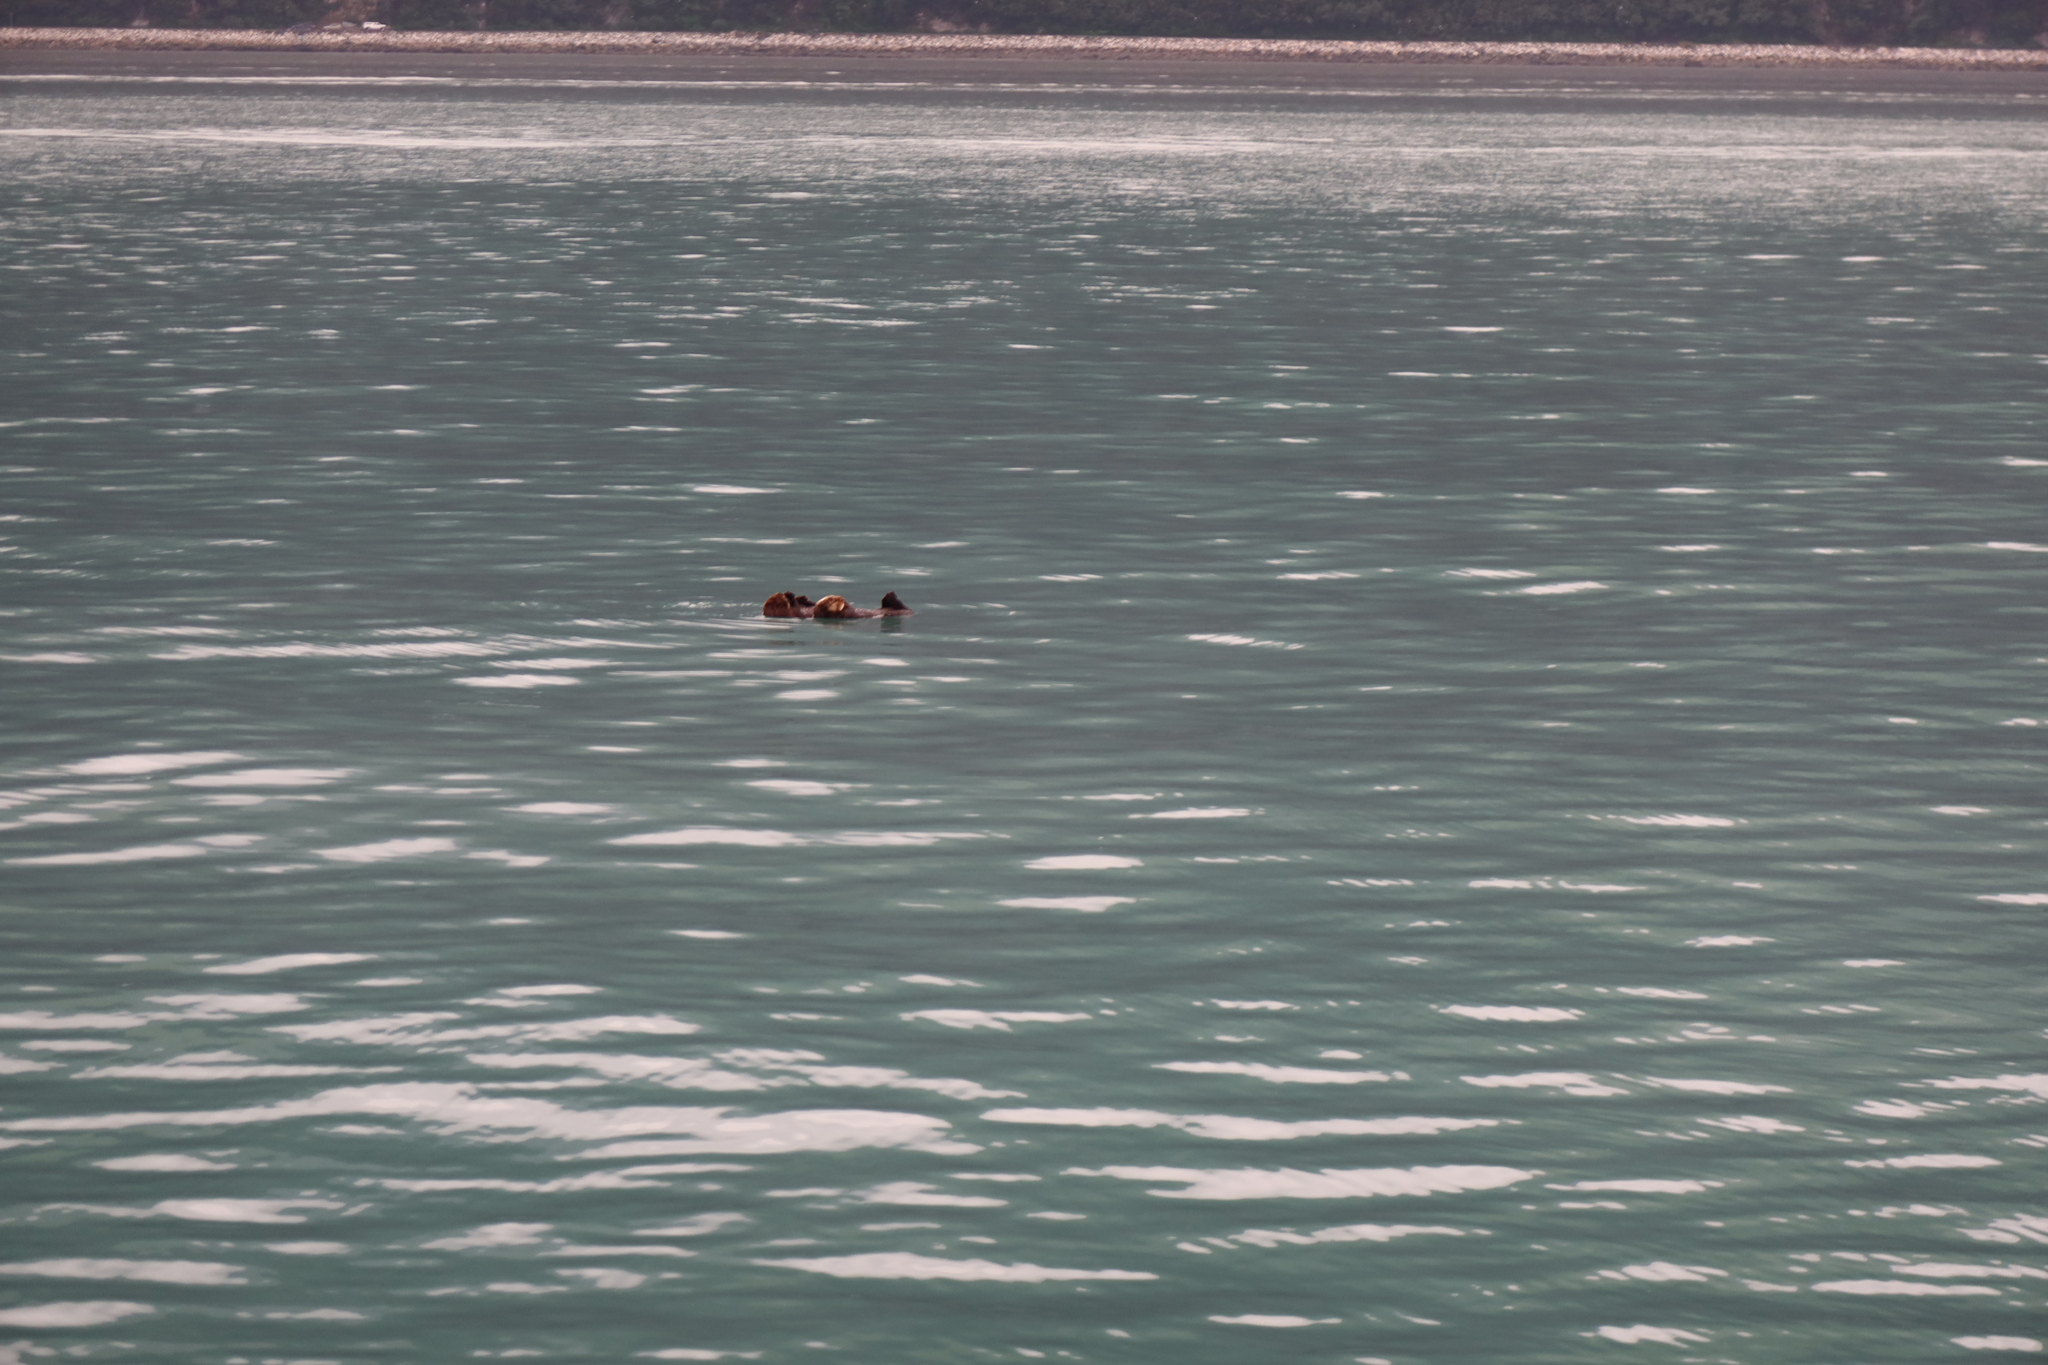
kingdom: Animalia
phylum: Chordata
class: Mammalia
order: Carnivora
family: Mustelidae
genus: Enhydra
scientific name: Enhydra lutris
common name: Sea otter
